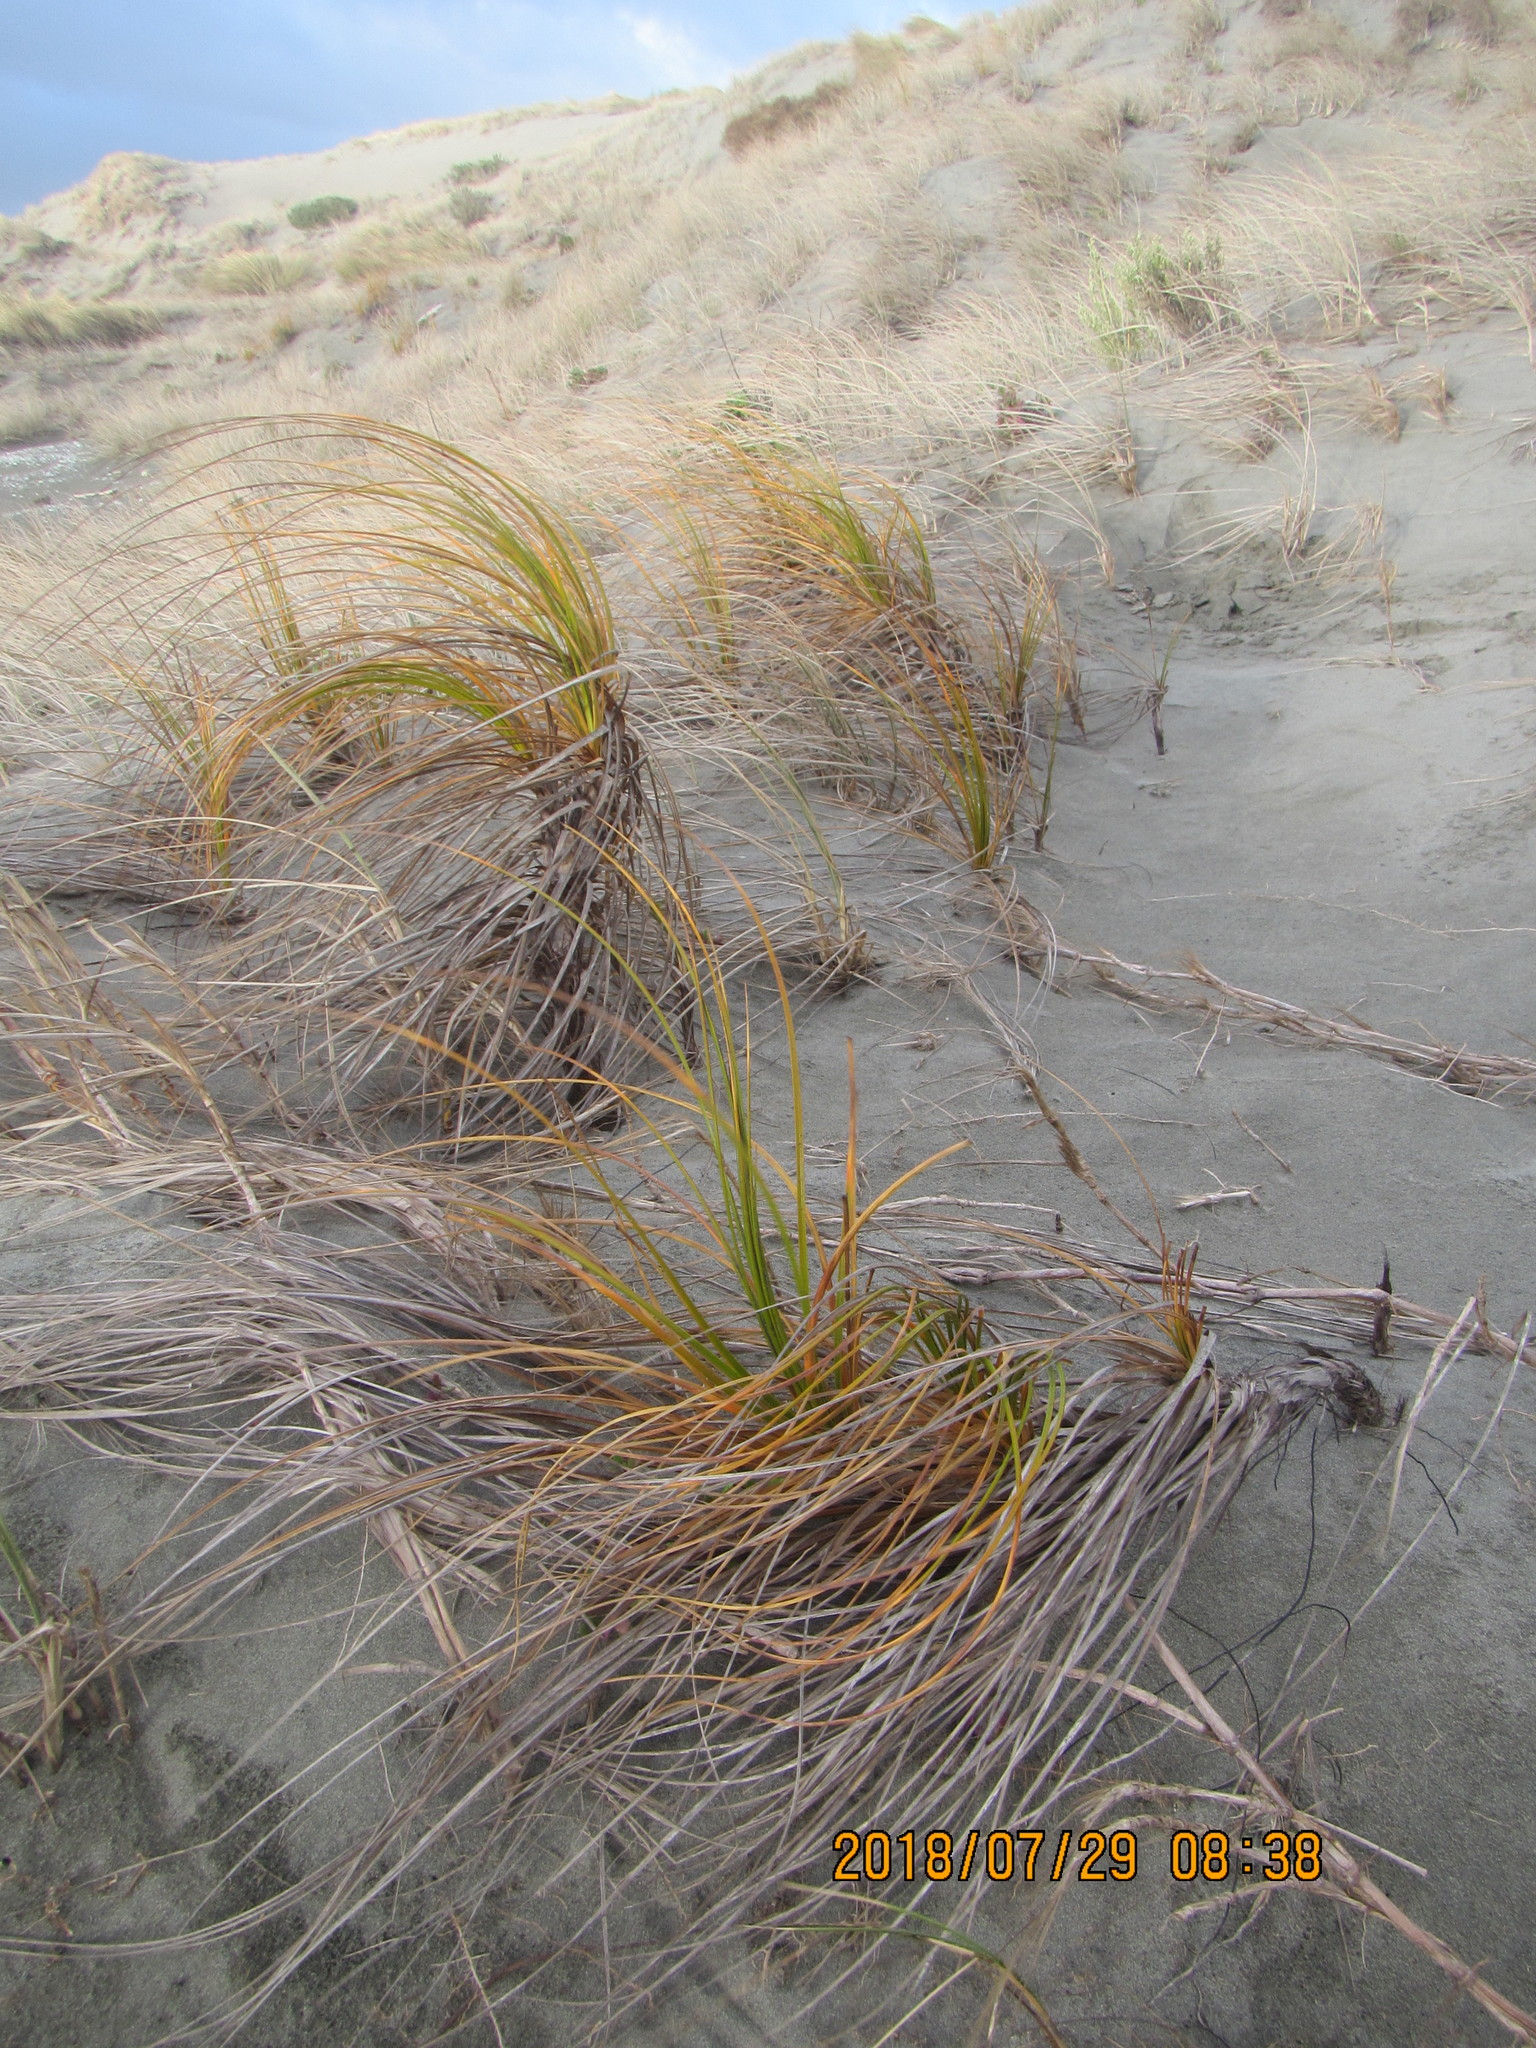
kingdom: Plantae
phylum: Tracheophyta
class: Liliopsida
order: Poales
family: Cyperaceae
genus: Ficinia
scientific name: Ficinia spiralis
